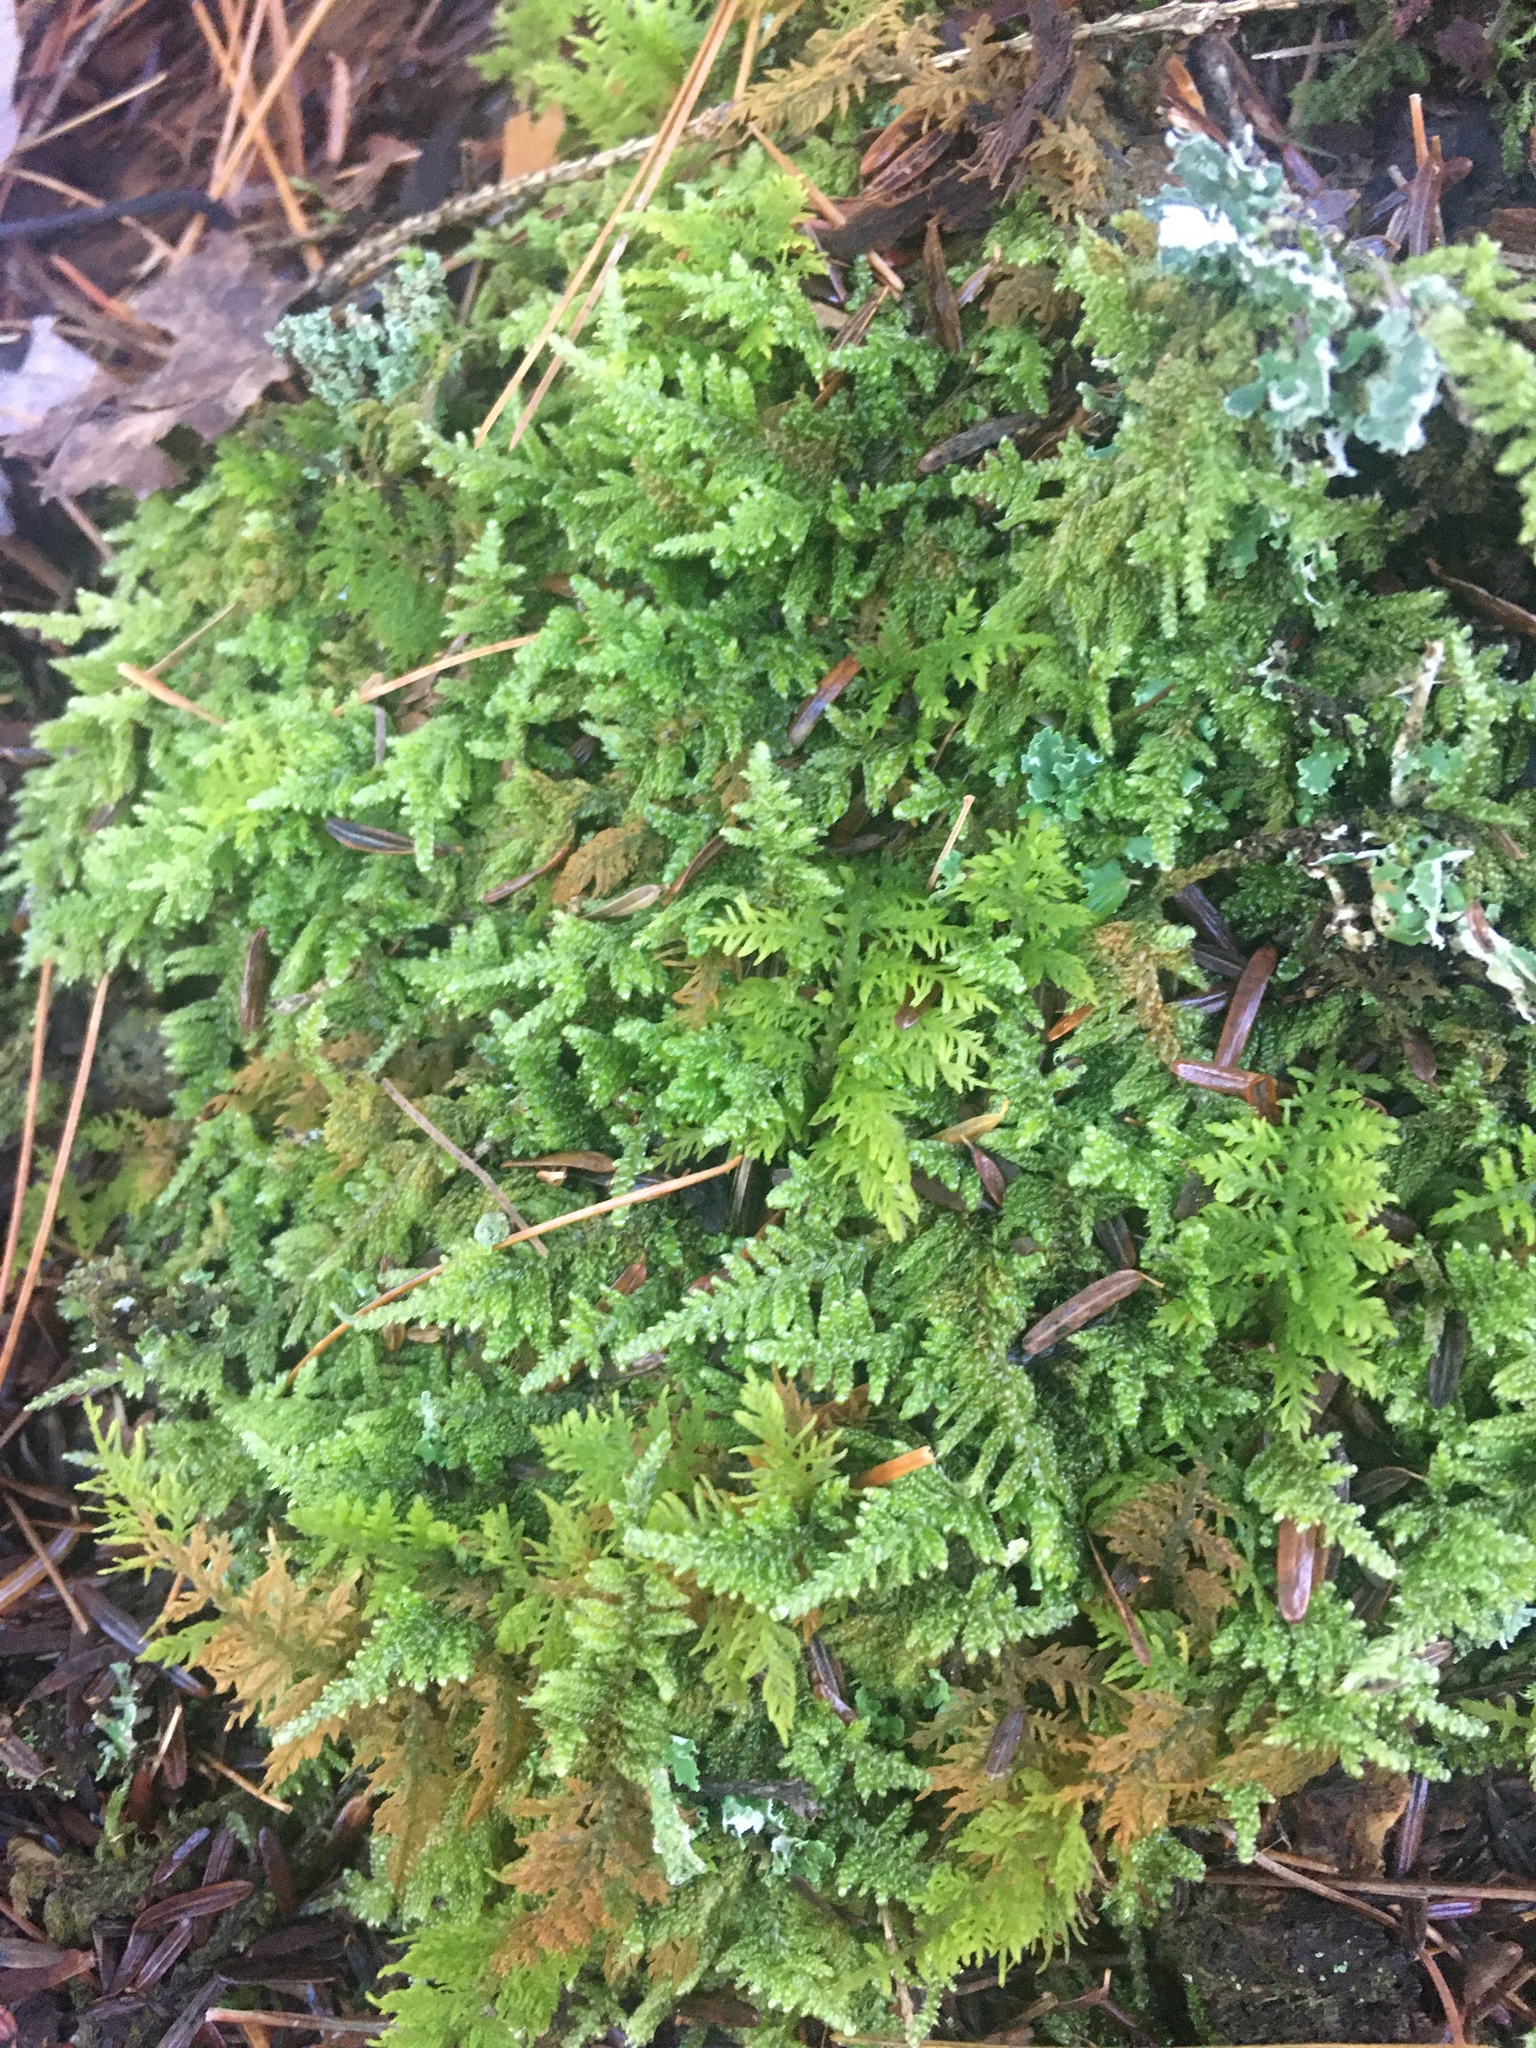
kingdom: Plantae
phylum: Bryophyta
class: Bryopsida
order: Hypnales
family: Thuidiaceae
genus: Thuidium
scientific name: Thuidium delicatulum
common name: Delicate fern moss
